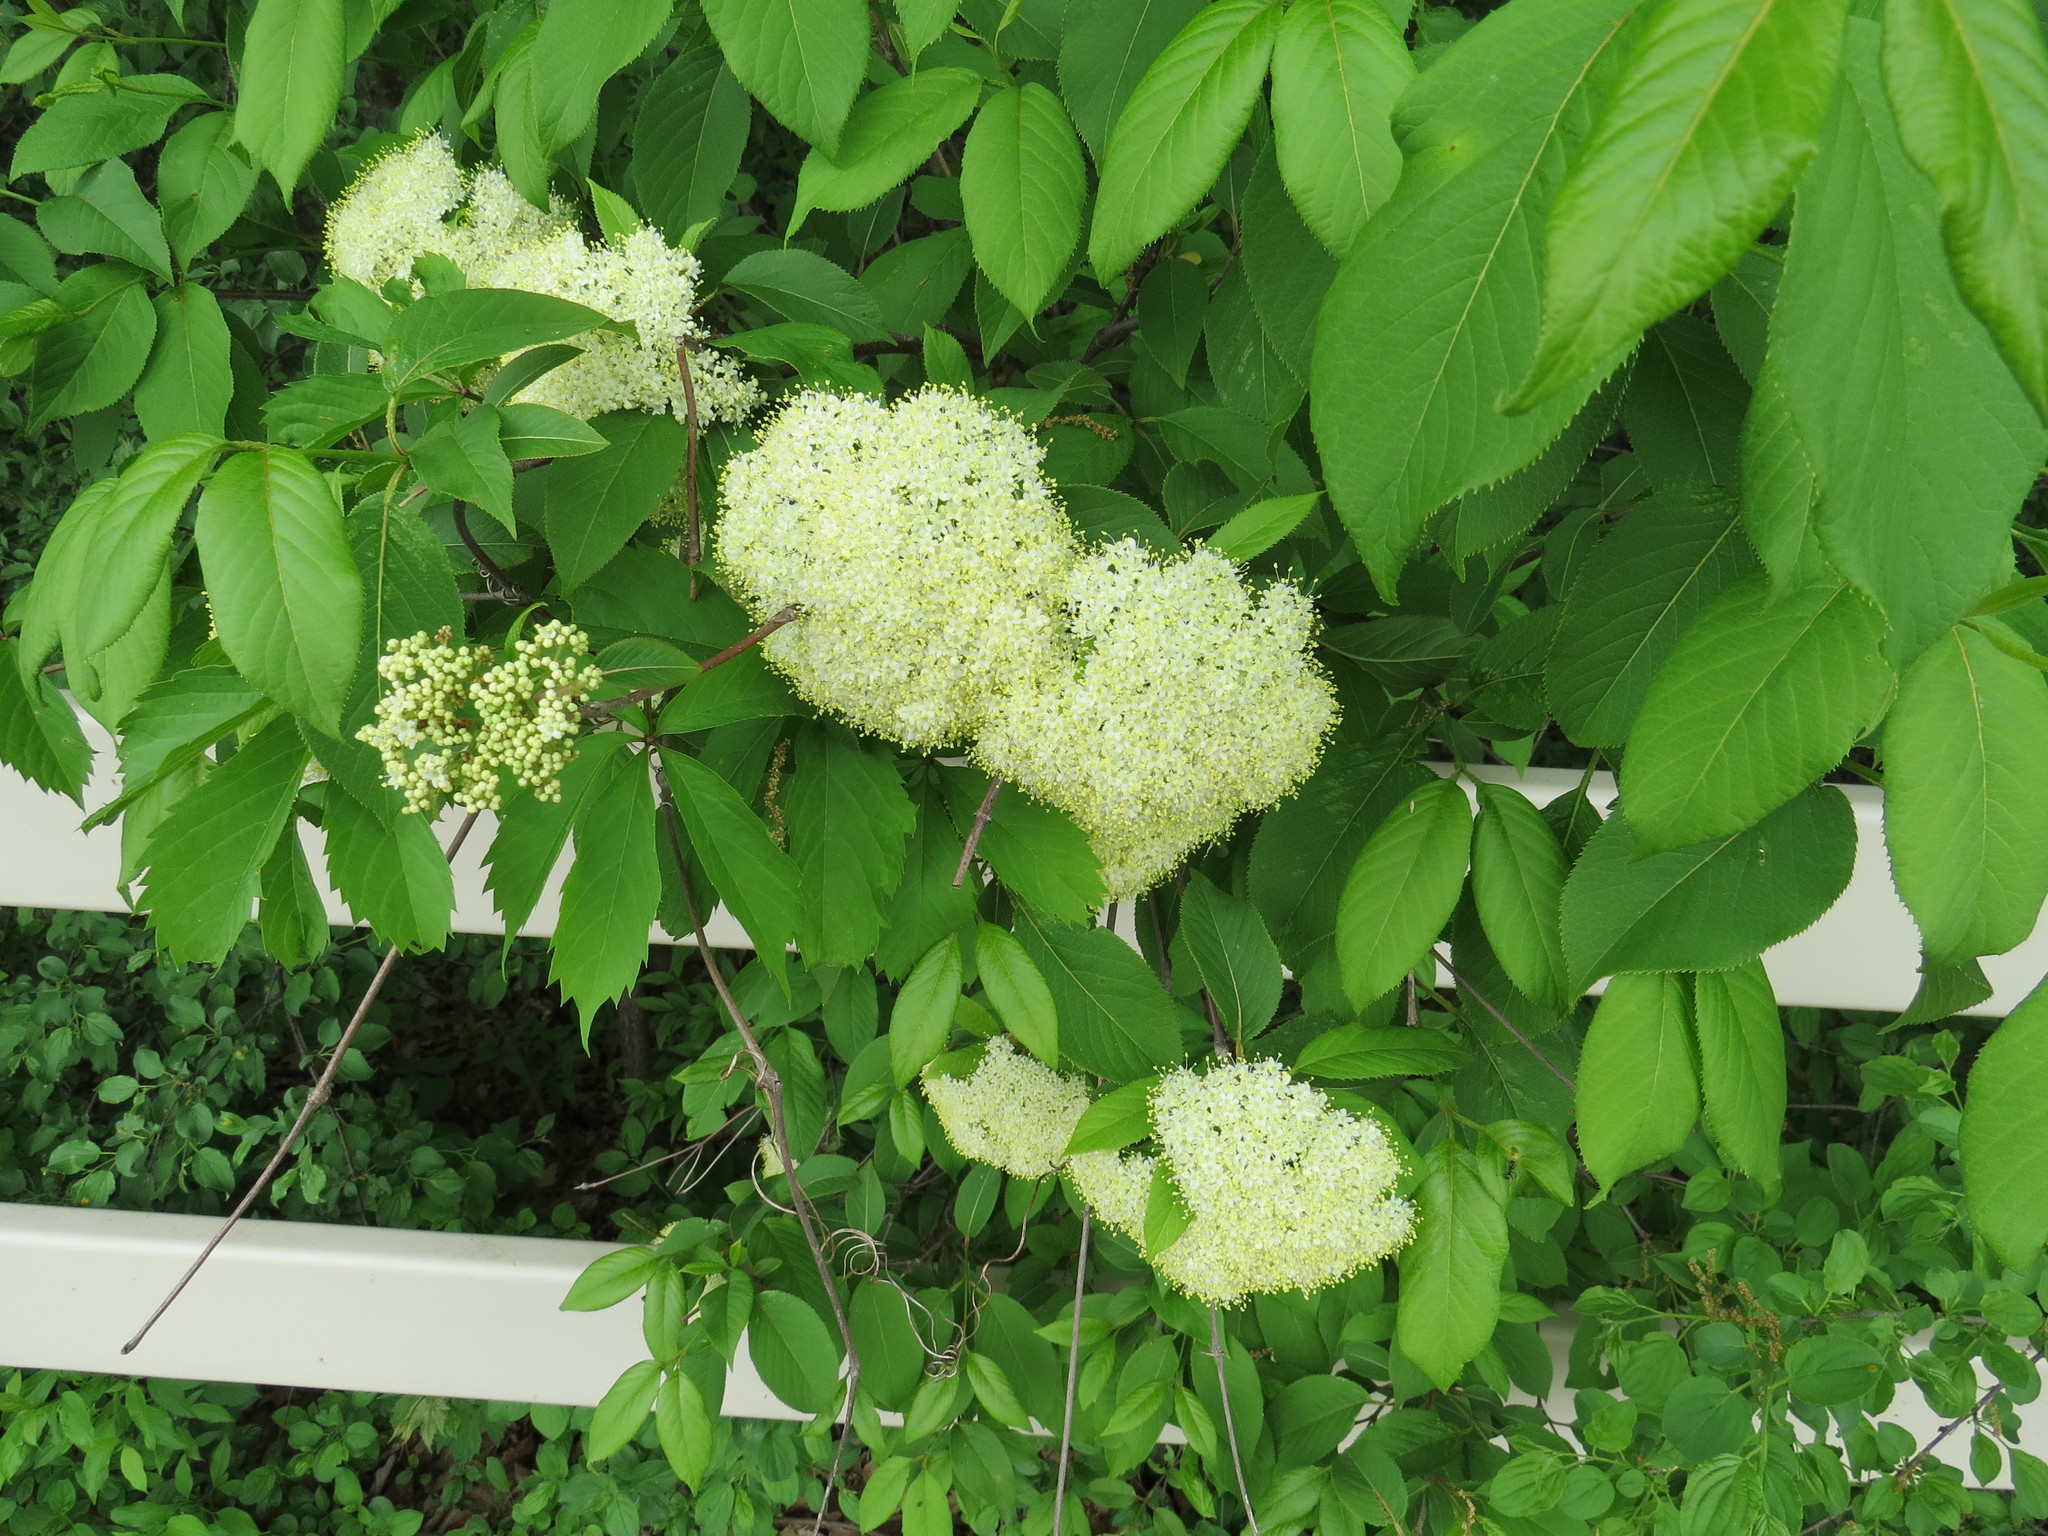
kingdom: Plantae
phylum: Tracheophyta
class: Magnoliopsida
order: Dipsacales
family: Viburnaceae
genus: Viburnum
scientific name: Viburnum lentago
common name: Black haw
